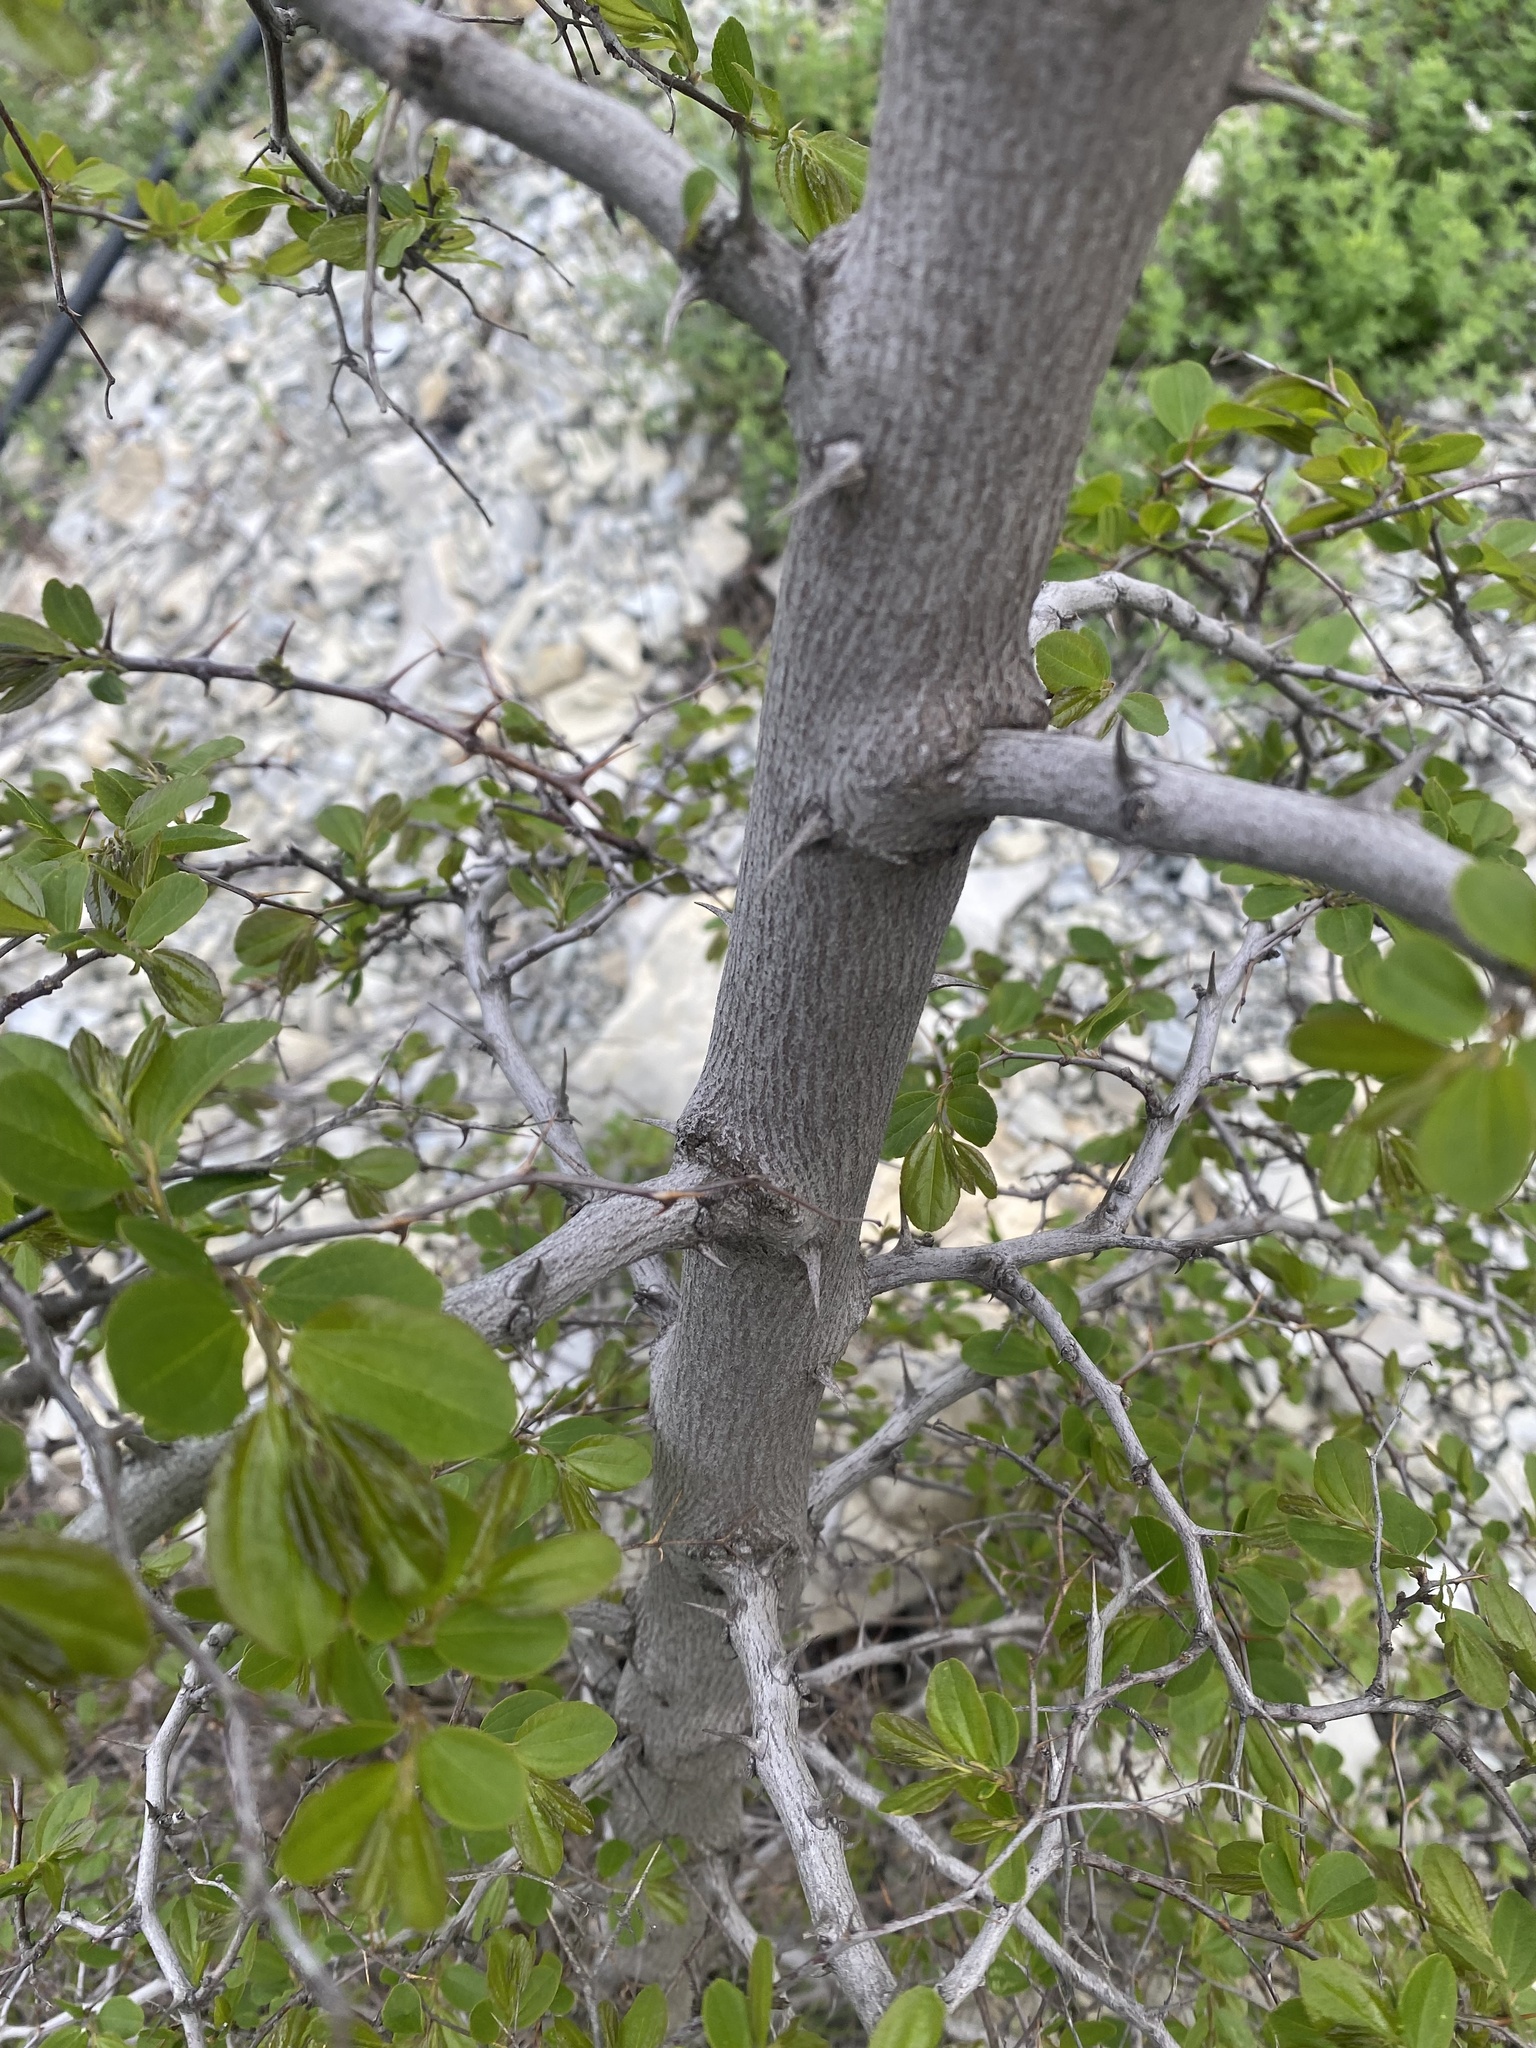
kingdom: Plantae
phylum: Tracheophyta
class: Magnoliopsida
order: Rosales
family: Rhamnaceae
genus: Paliurus
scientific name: Paliurus spina-christi
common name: Jeruselem thorn
